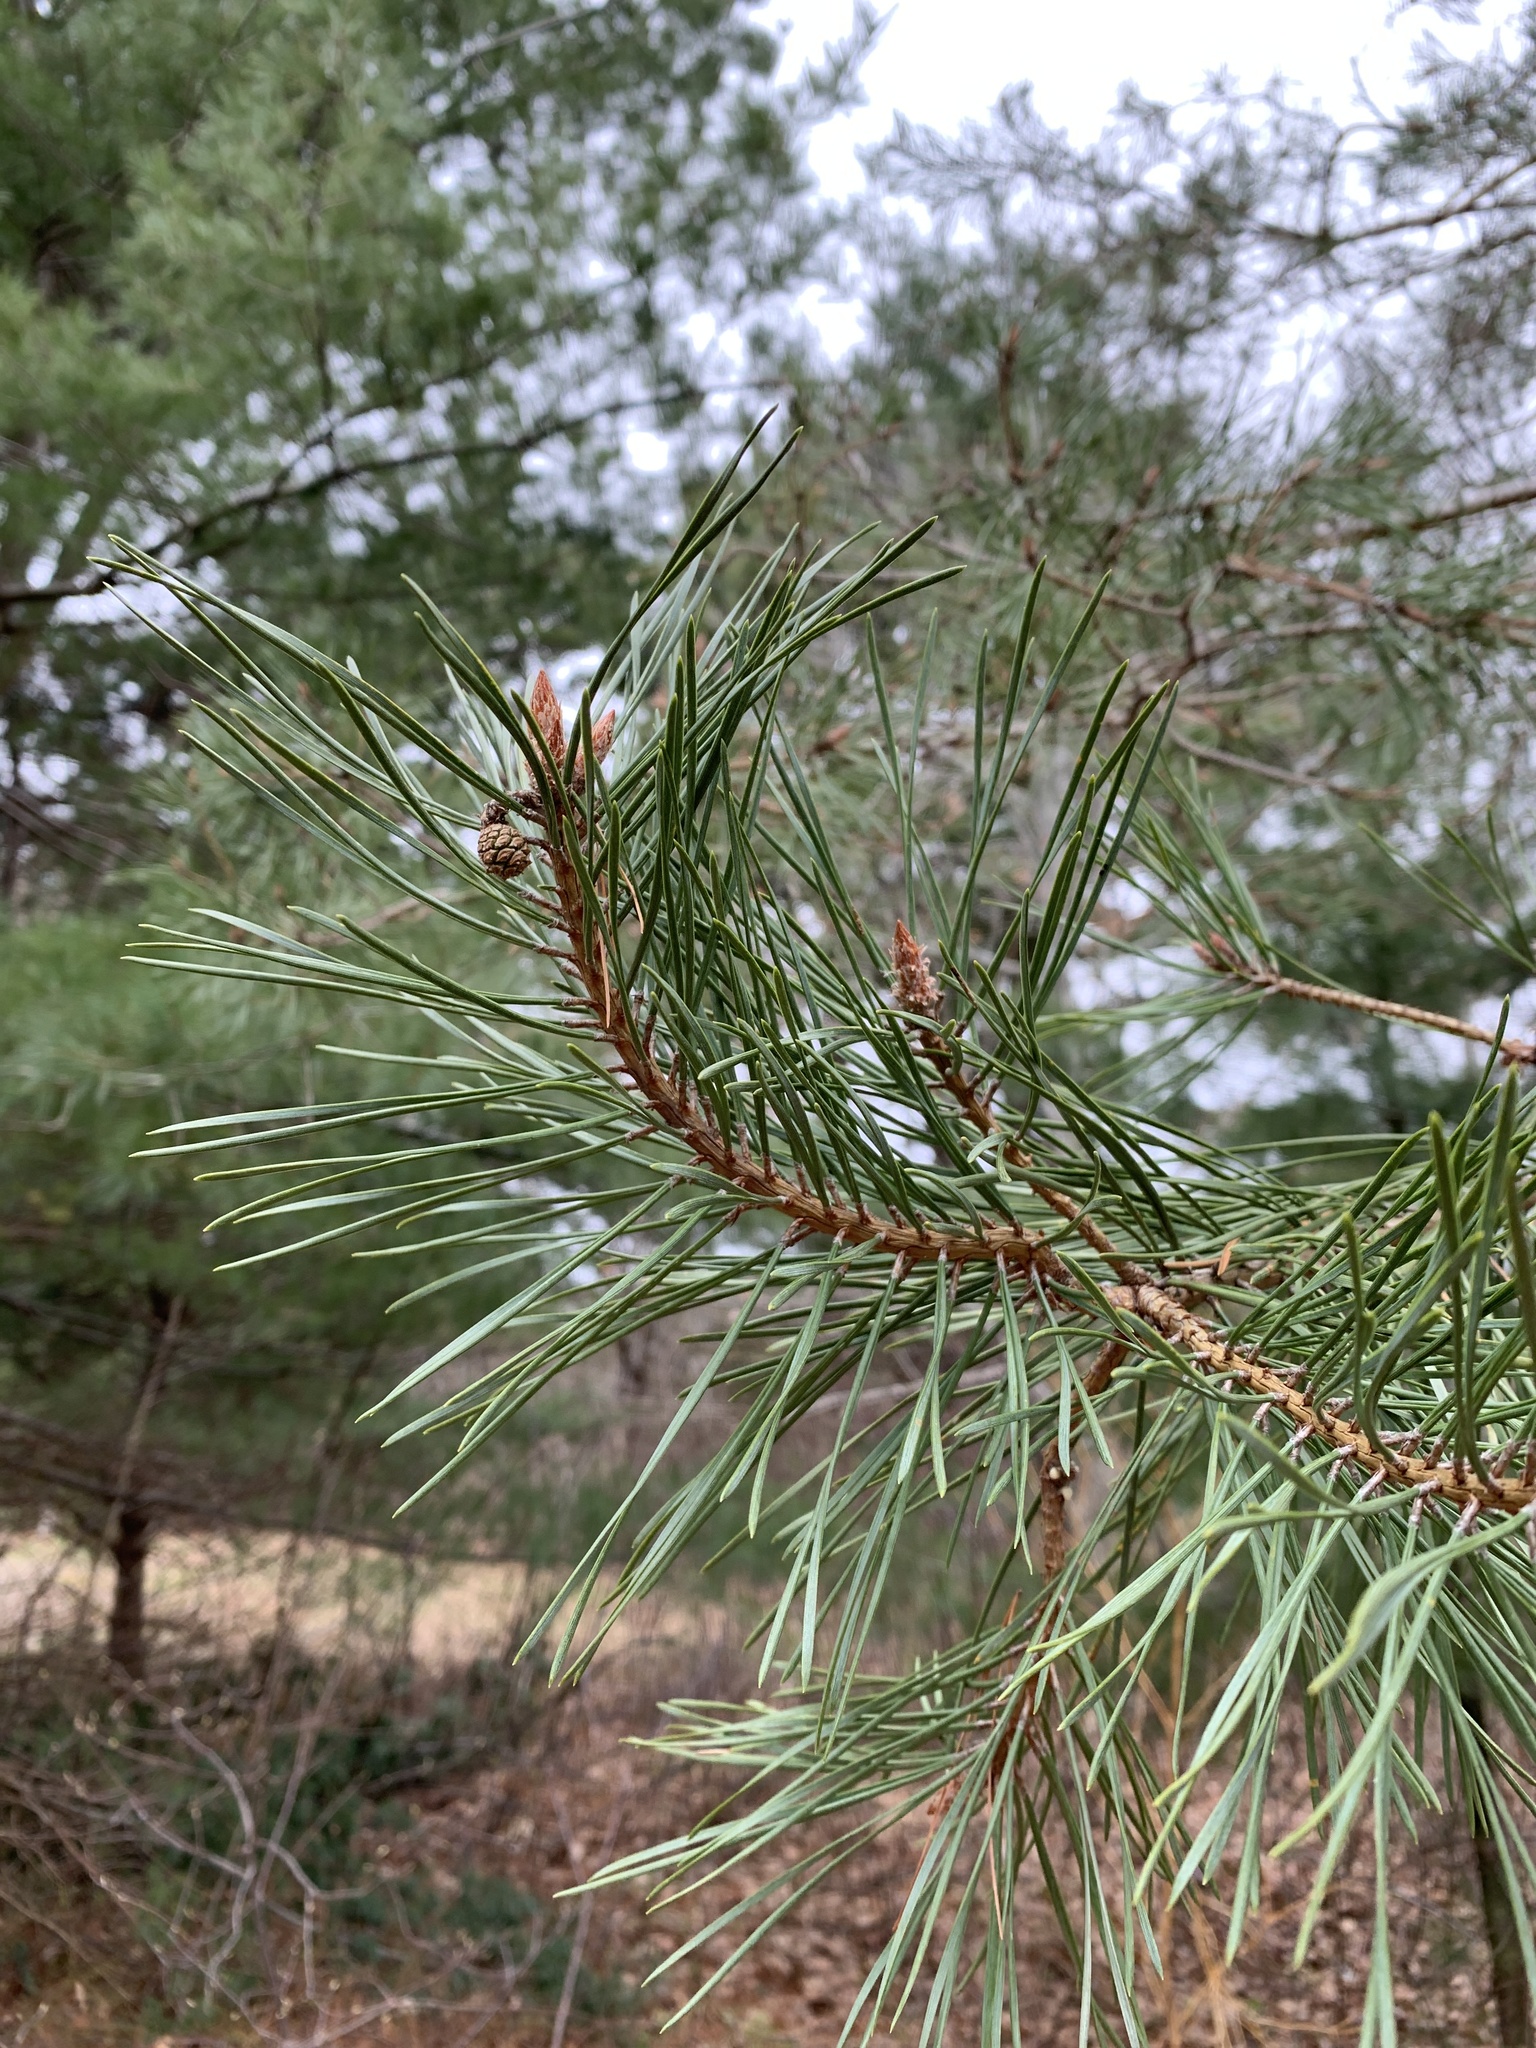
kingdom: Plantae
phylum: Tracheophyta
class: Pinopsida
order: Pinales
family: Pinaceae
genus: Pinus
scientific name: Pinus sylvestris
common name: Scots pine
